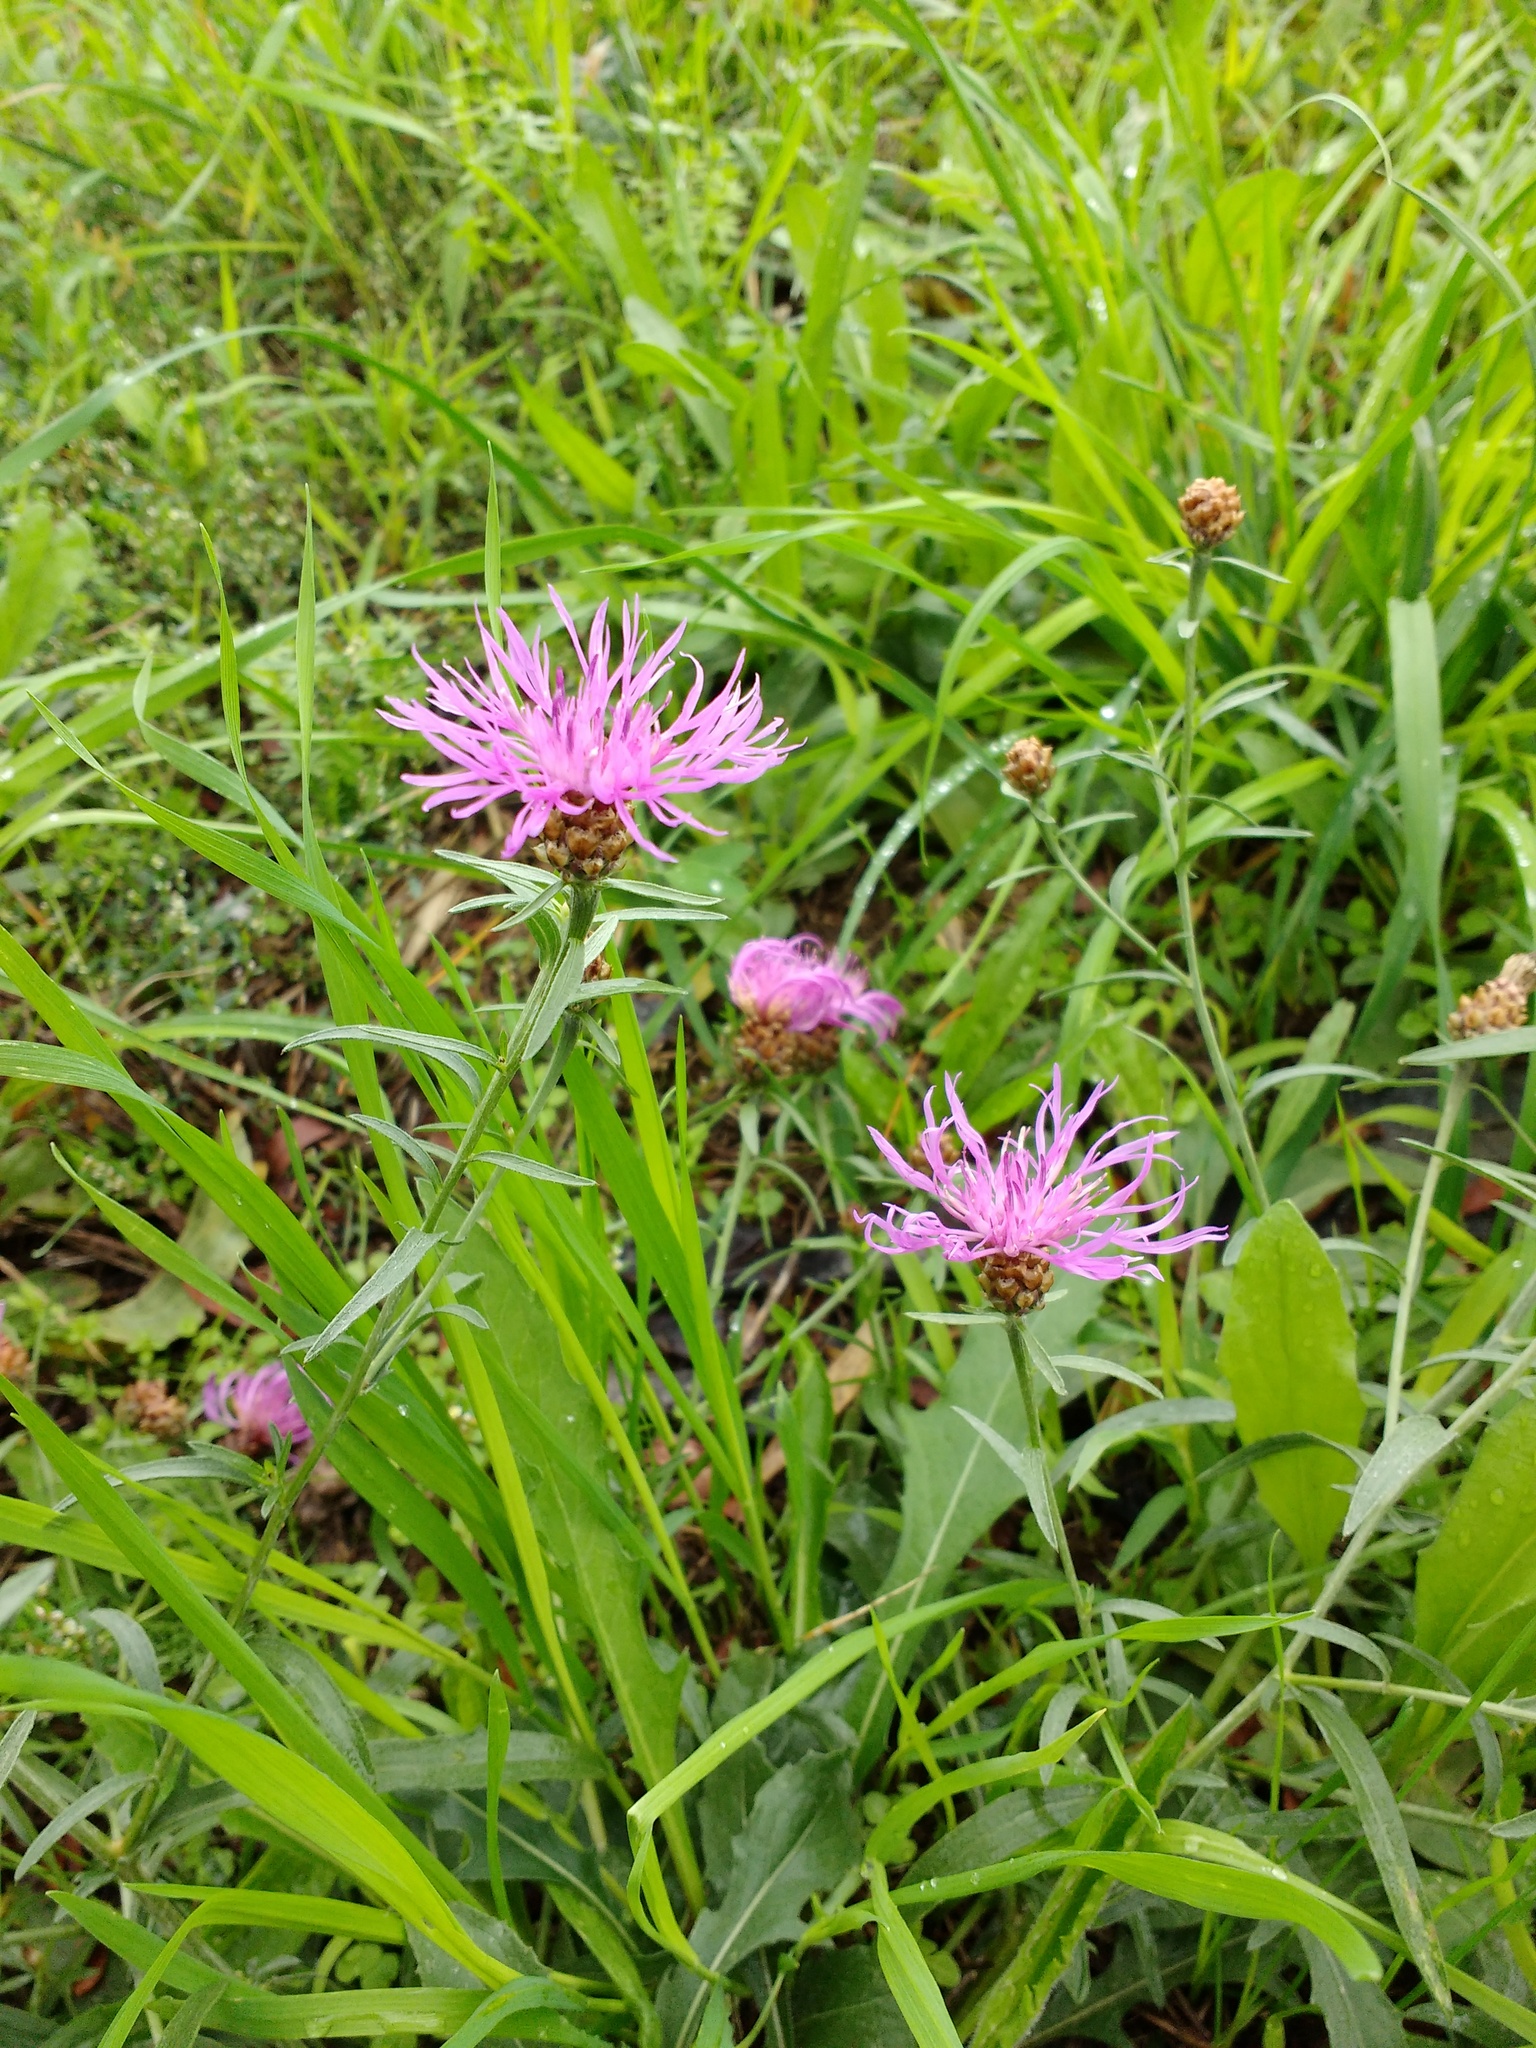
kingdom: Plantae
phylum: Tracheophyta
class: Magnoliopsida
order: Asterales
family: Asteraceae
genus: Centaurea
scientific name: Centaurea jacea
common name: Brown knapweed
